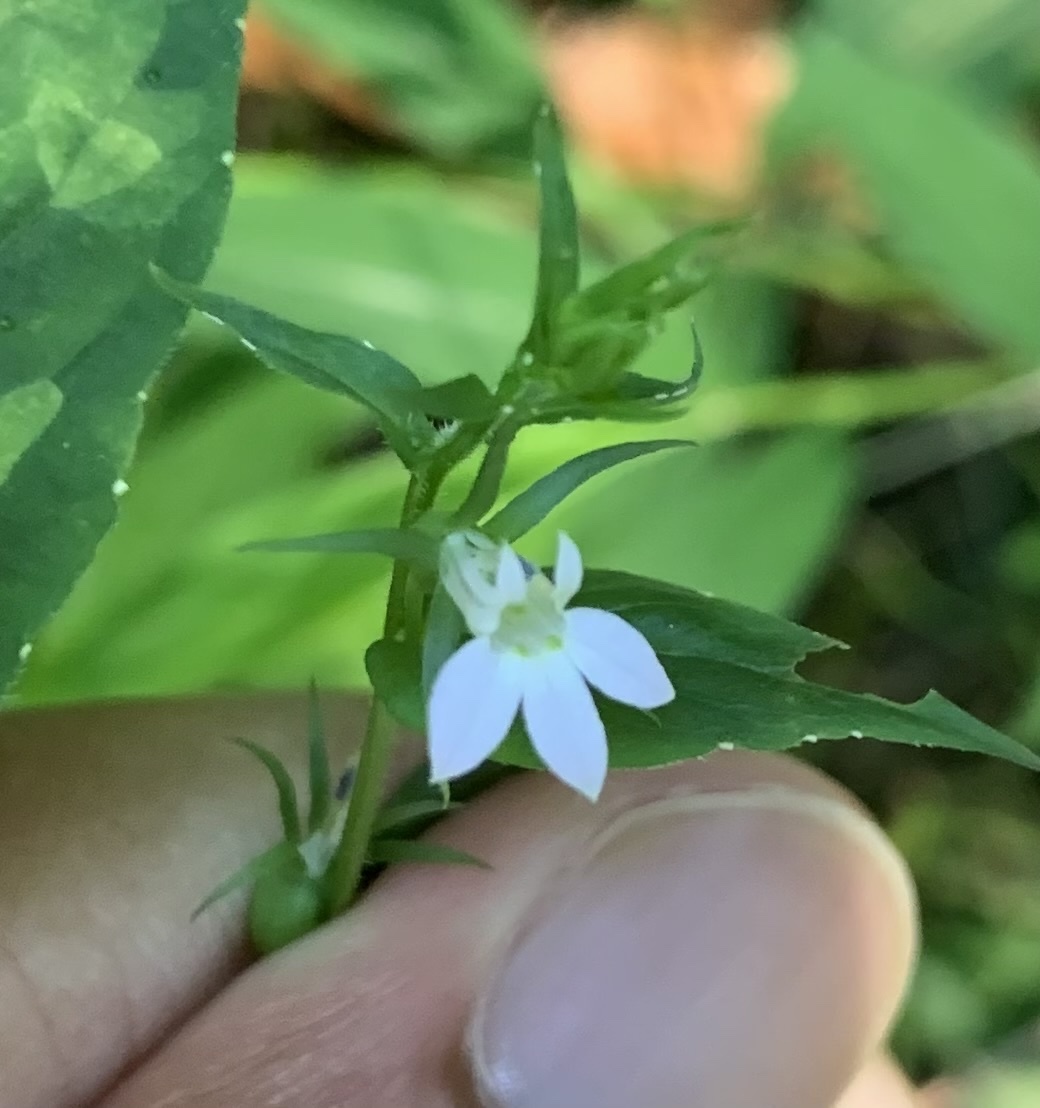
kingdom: Plantae
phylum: Tracheophyta
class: Magnoliopsida
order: Asterales
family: Campanulaceae
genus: Lobelia
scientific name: Lobelia inflata
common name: Indian tobacco
